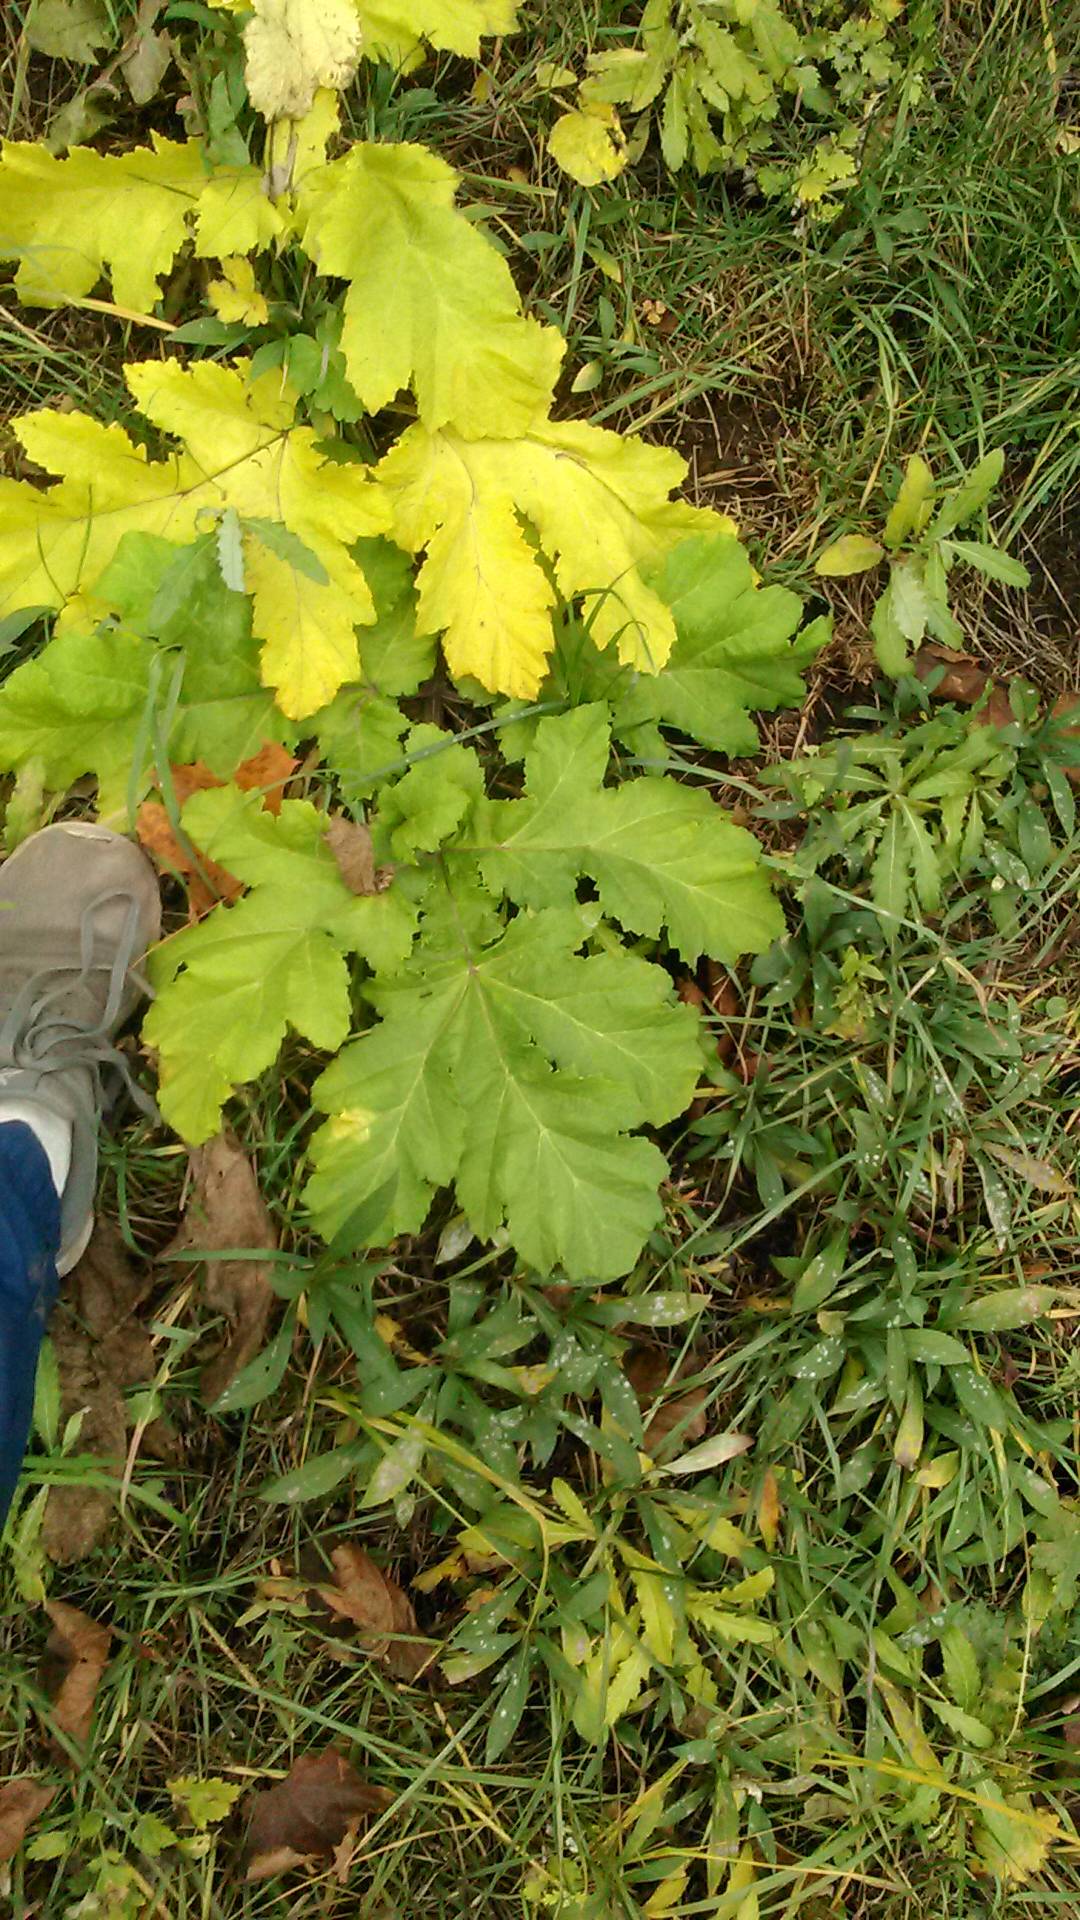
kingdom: Plantae
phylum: Tracheophyta
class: Magnoliopsida
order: Apiales
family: Apiaceae
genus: Heracleum
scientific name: Heracleum sosnowskyi
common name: Sosnowsky's hogweed
